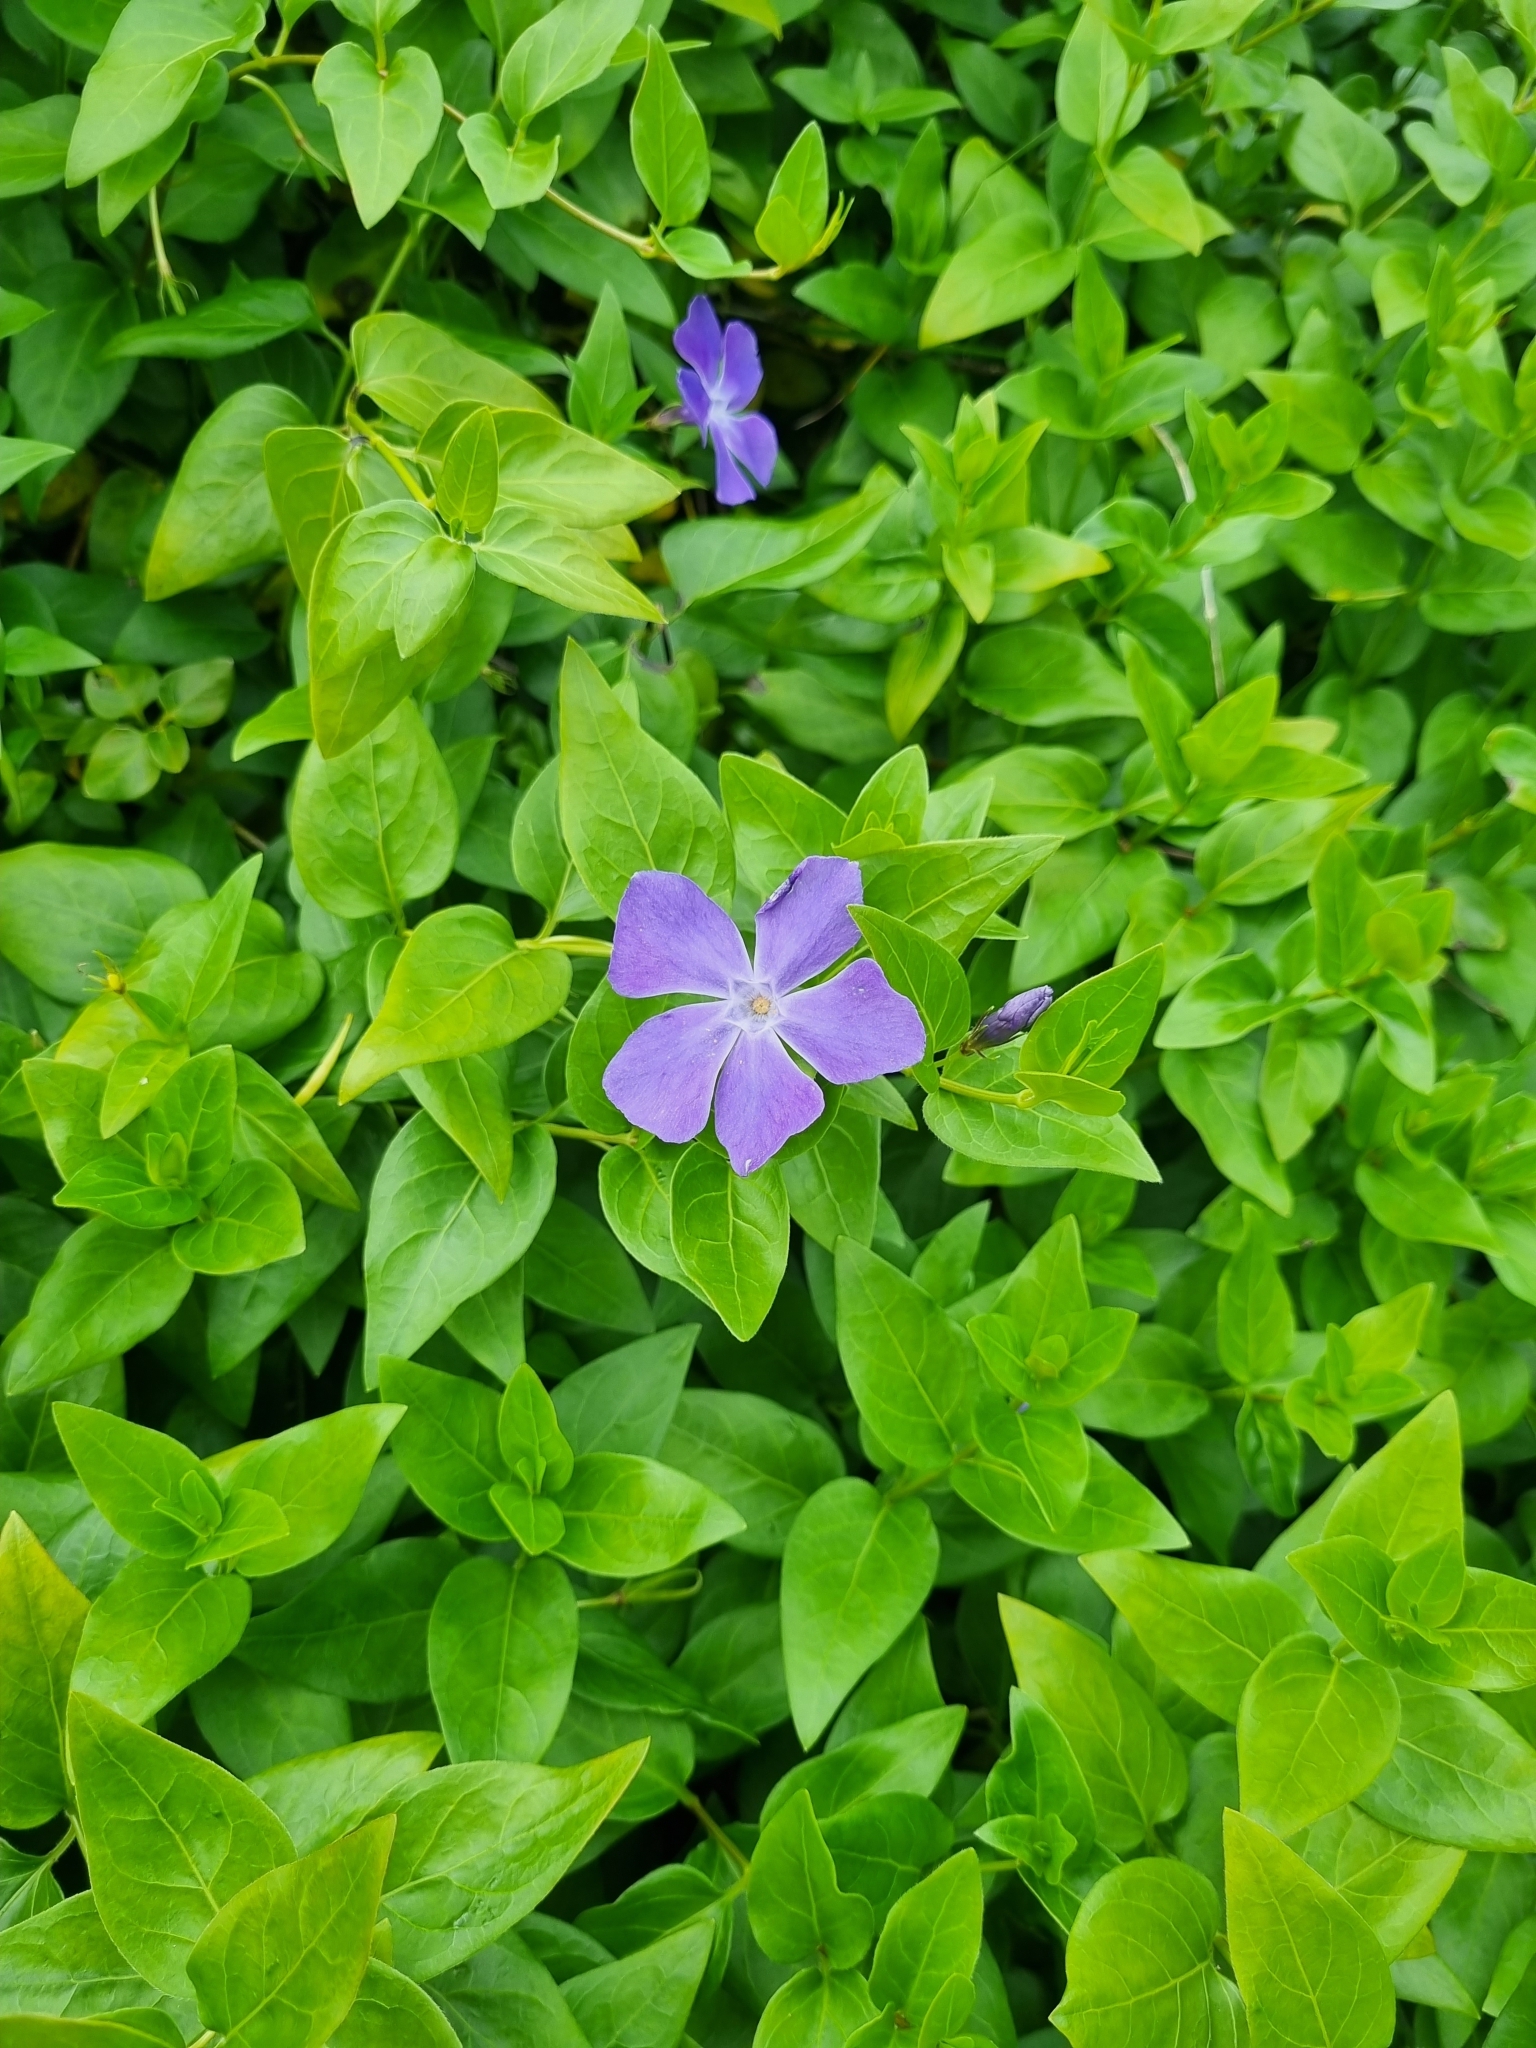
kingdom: Plantae
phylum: Tracheophyta
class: Magnoliopsida
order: Gentianales
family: Apocynaceae
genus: Vinca
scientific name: Vinca major
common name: Greater periwinkle
